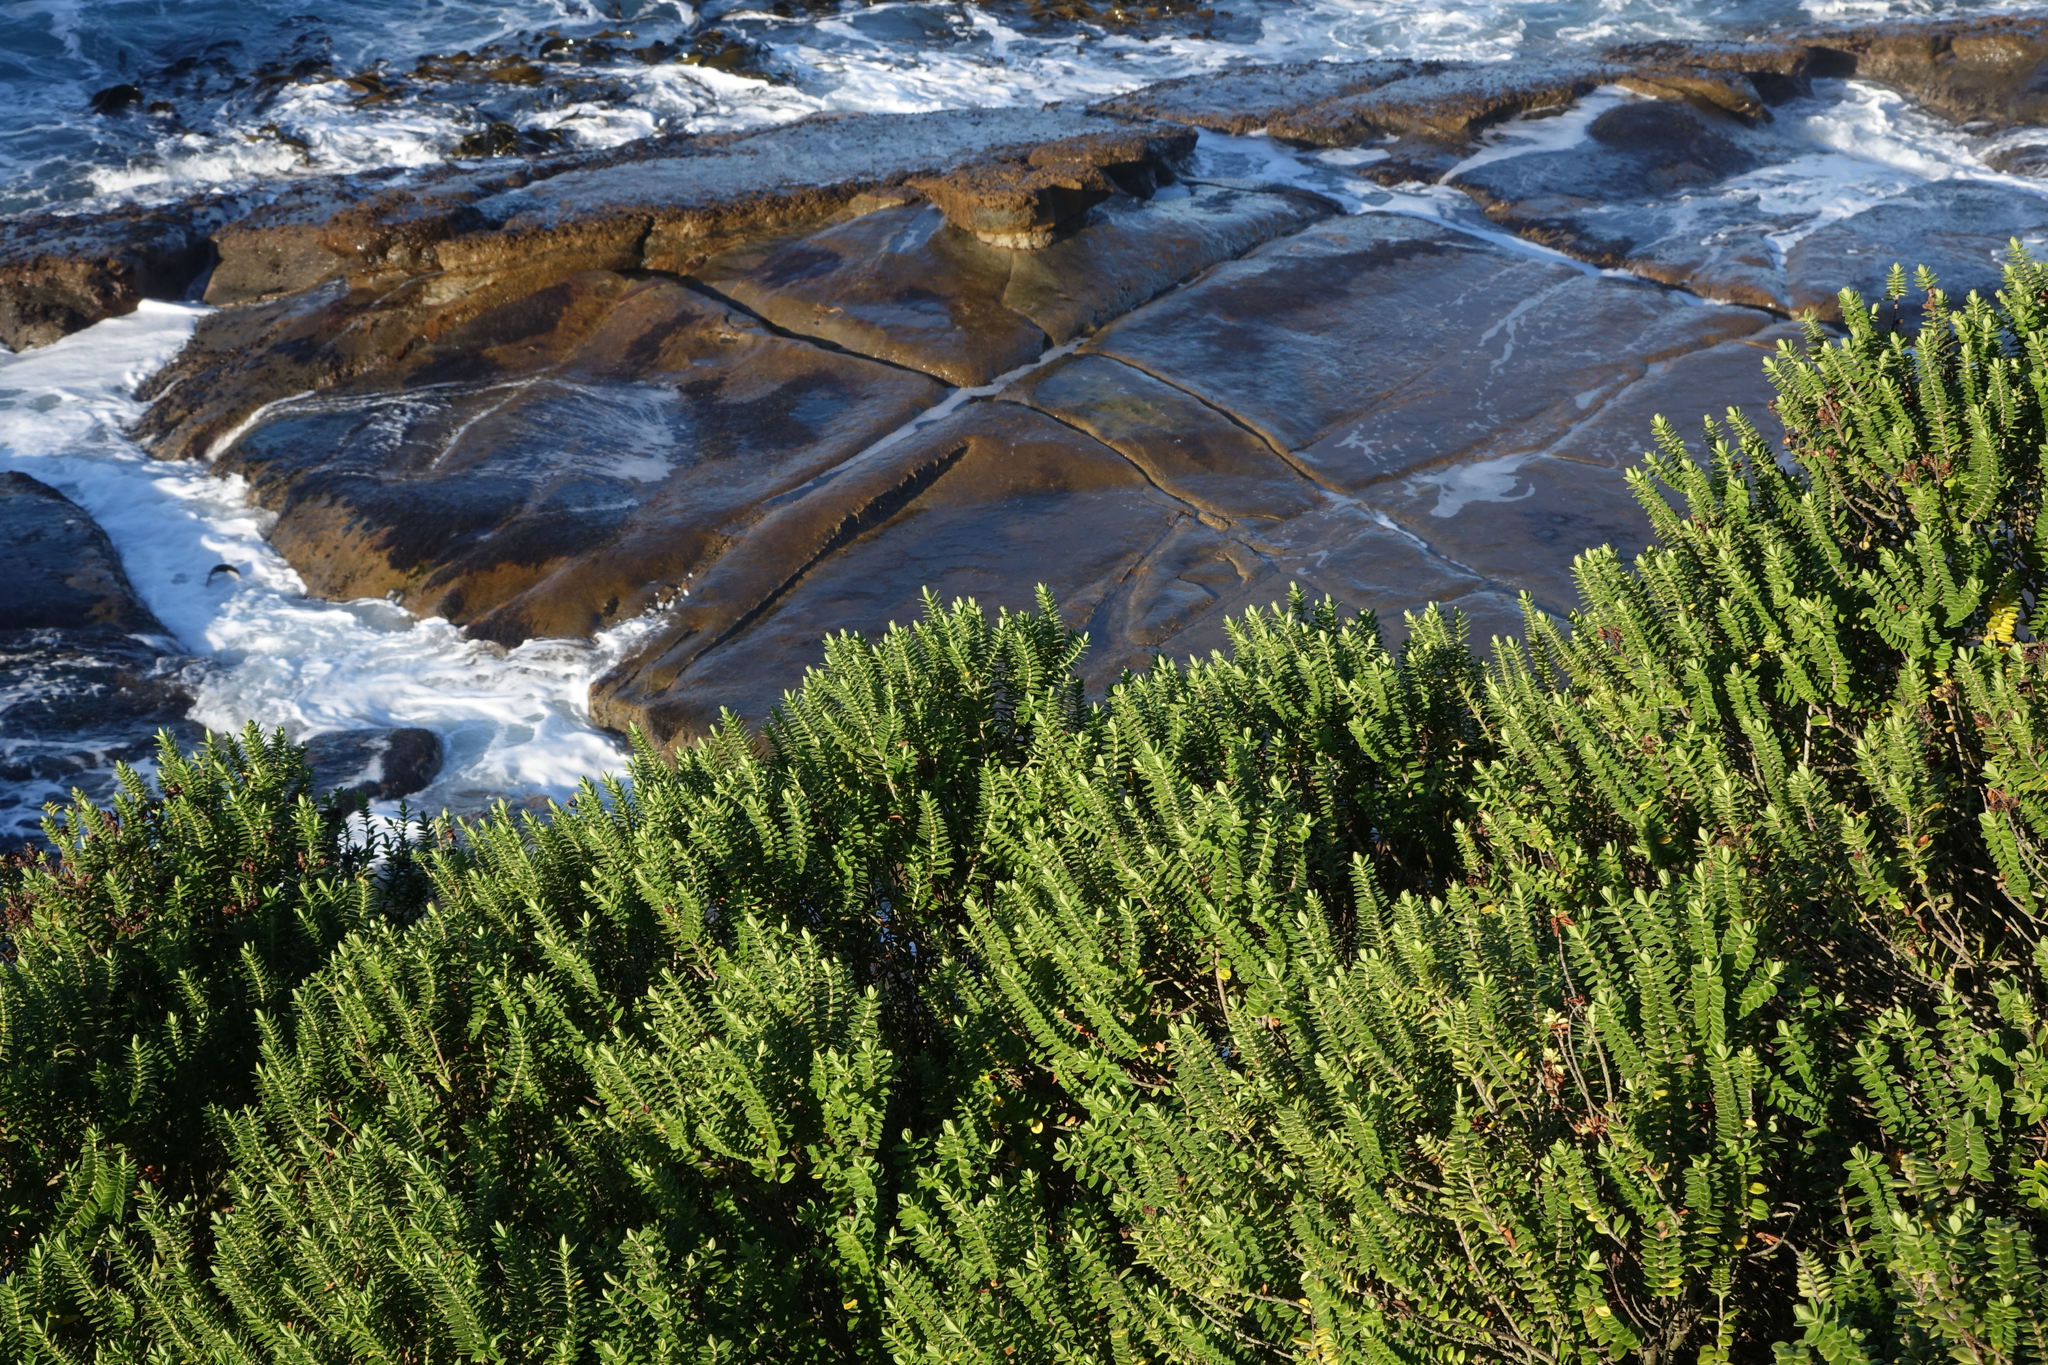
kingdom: Plantae
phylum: Tracheophyta
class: Magnoliopsida
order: Lamiales
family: Plantaginaceae
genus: Veronica
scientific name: Veronica elliptica
